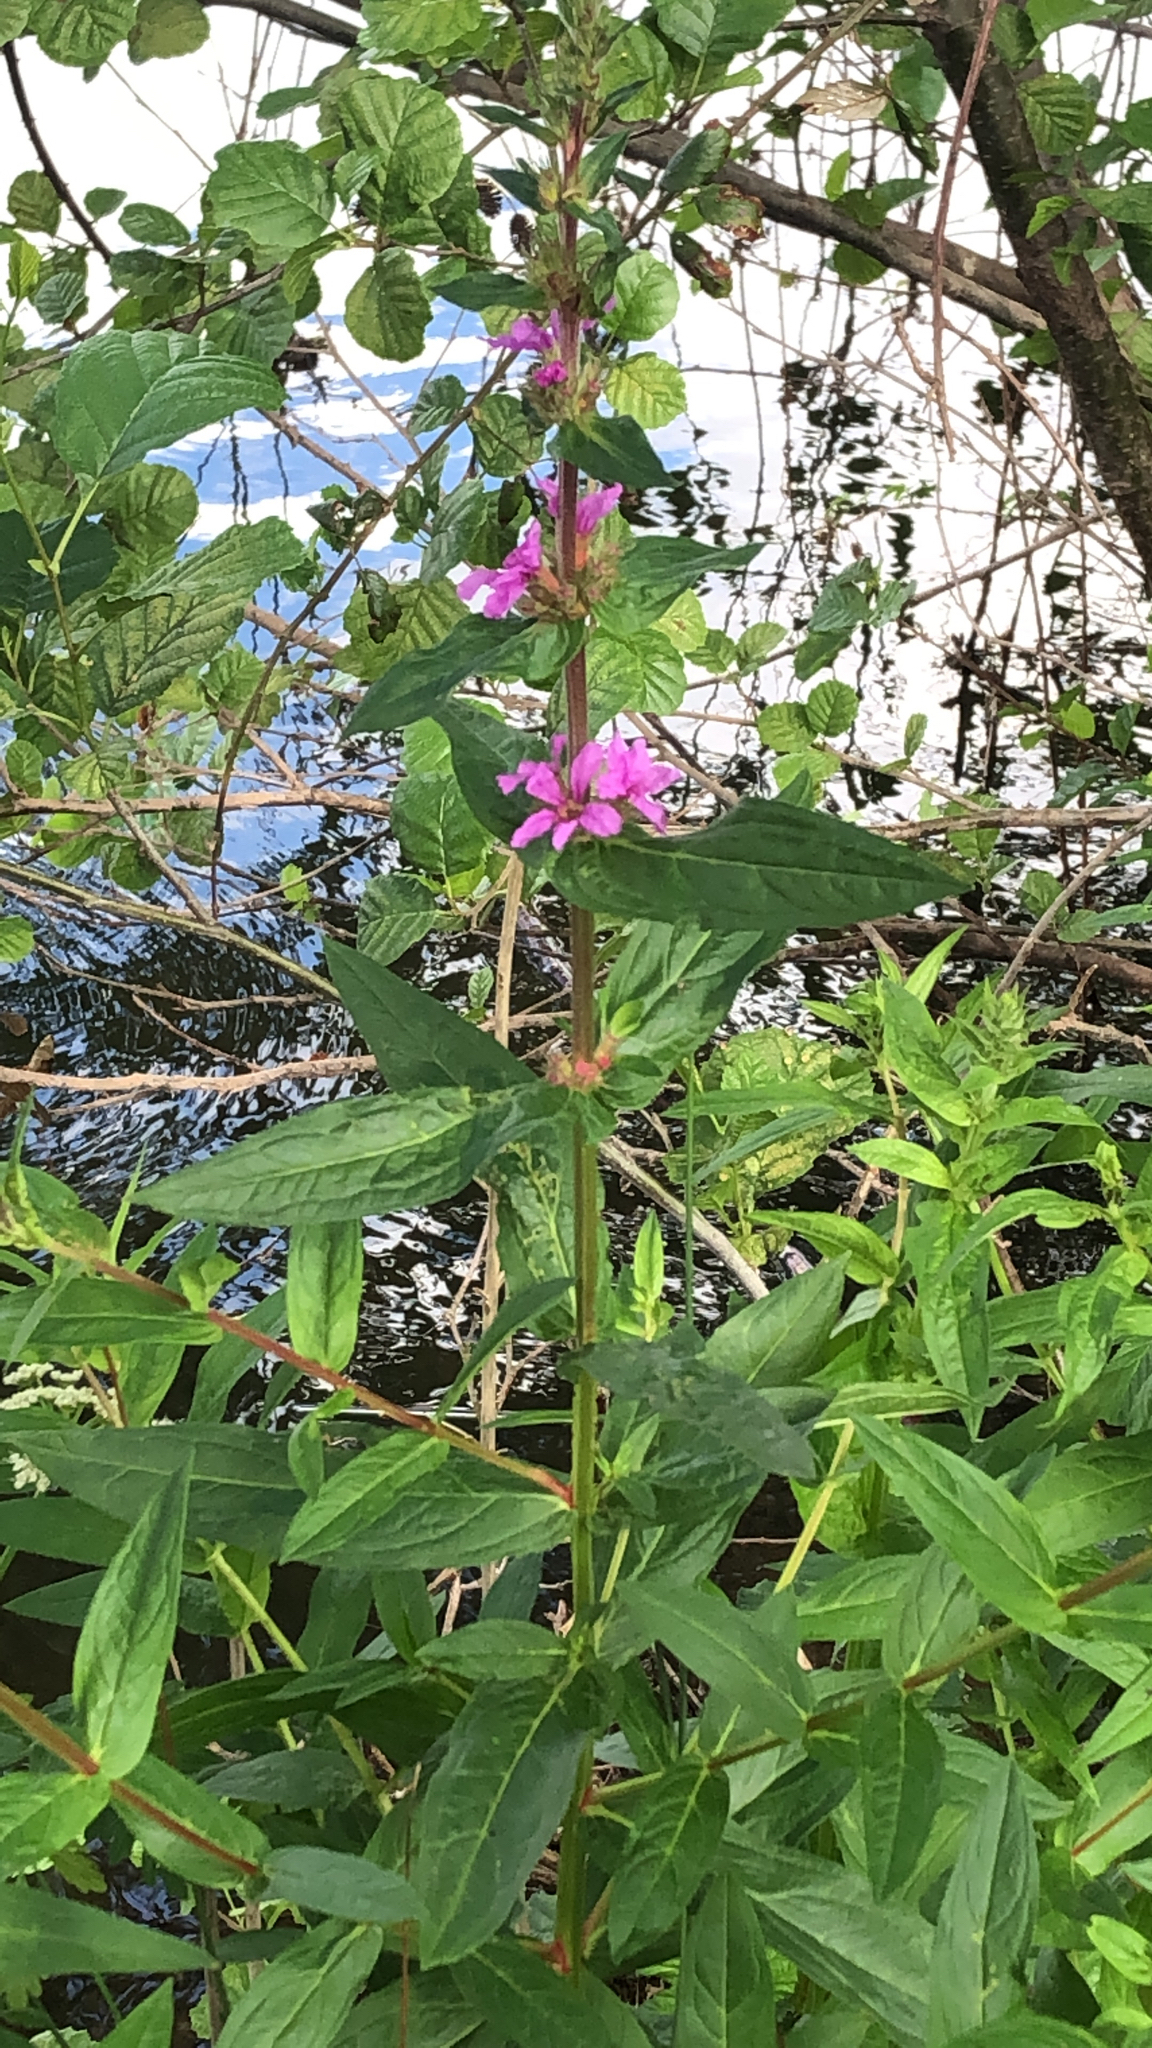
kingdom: Plantae
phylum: Tracheophyta
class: Magnoliopsida
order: Myrtales
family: Lythraceae
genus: Lythrum
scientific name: Lythrum salicaria
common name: Purple loosestrife
